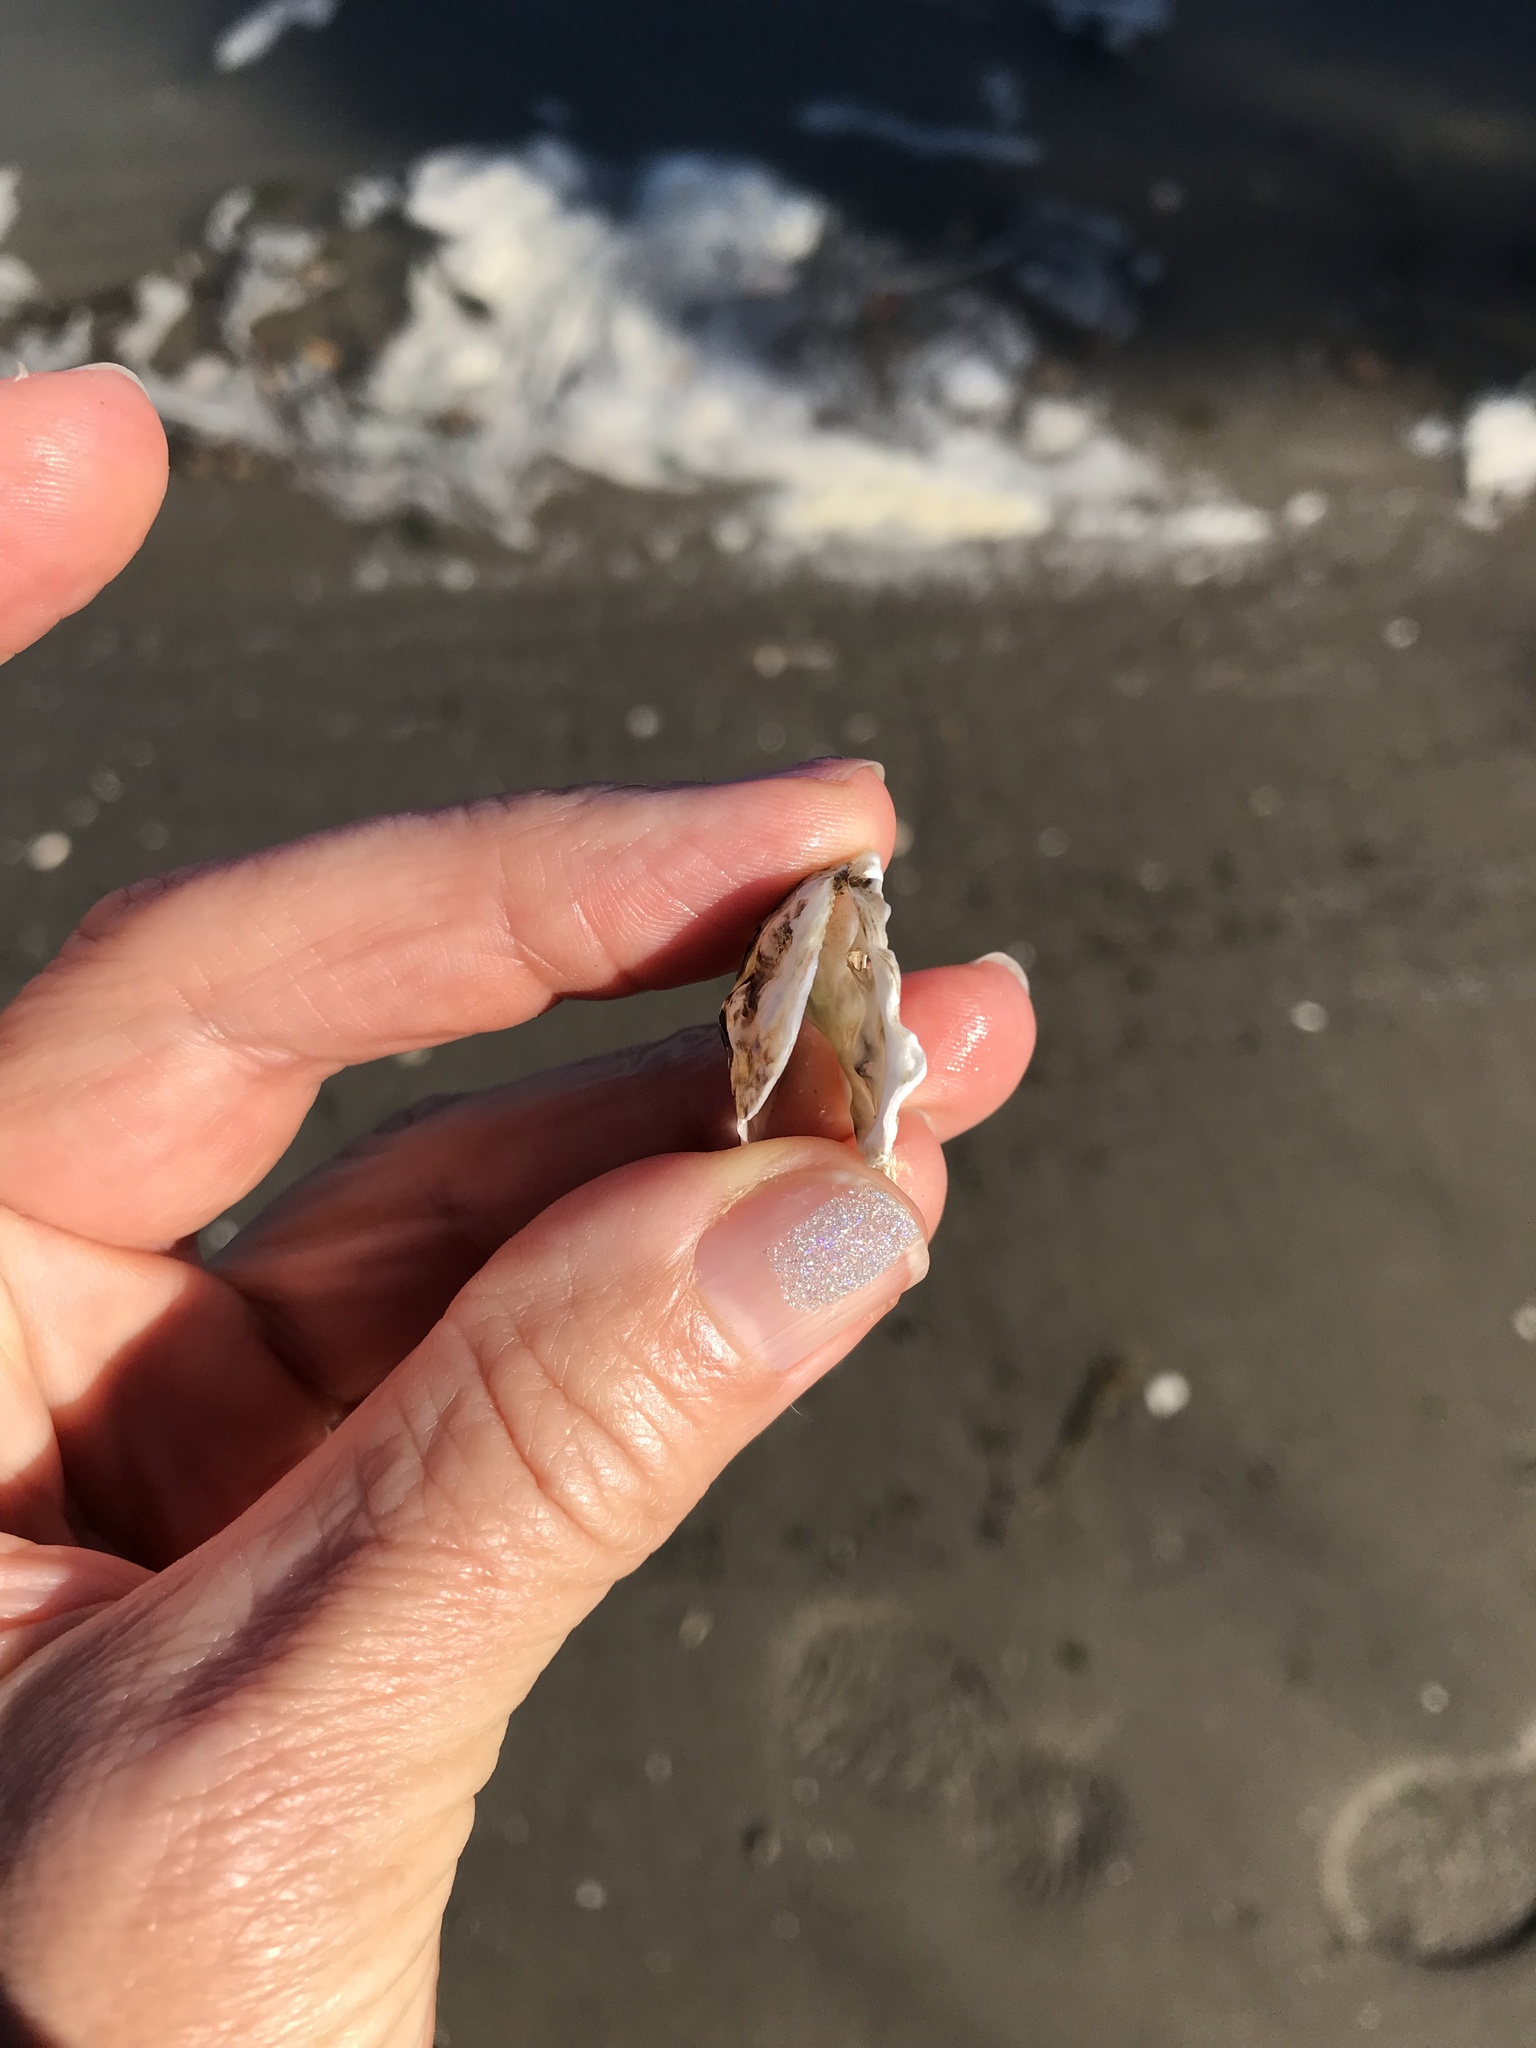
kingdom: Animalia
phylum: Mollusca
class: Bivalvia
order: Ostreida
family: Ostreidae
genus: Ostrea
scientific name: Ostrea lurida
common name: Olympia flat oyster
